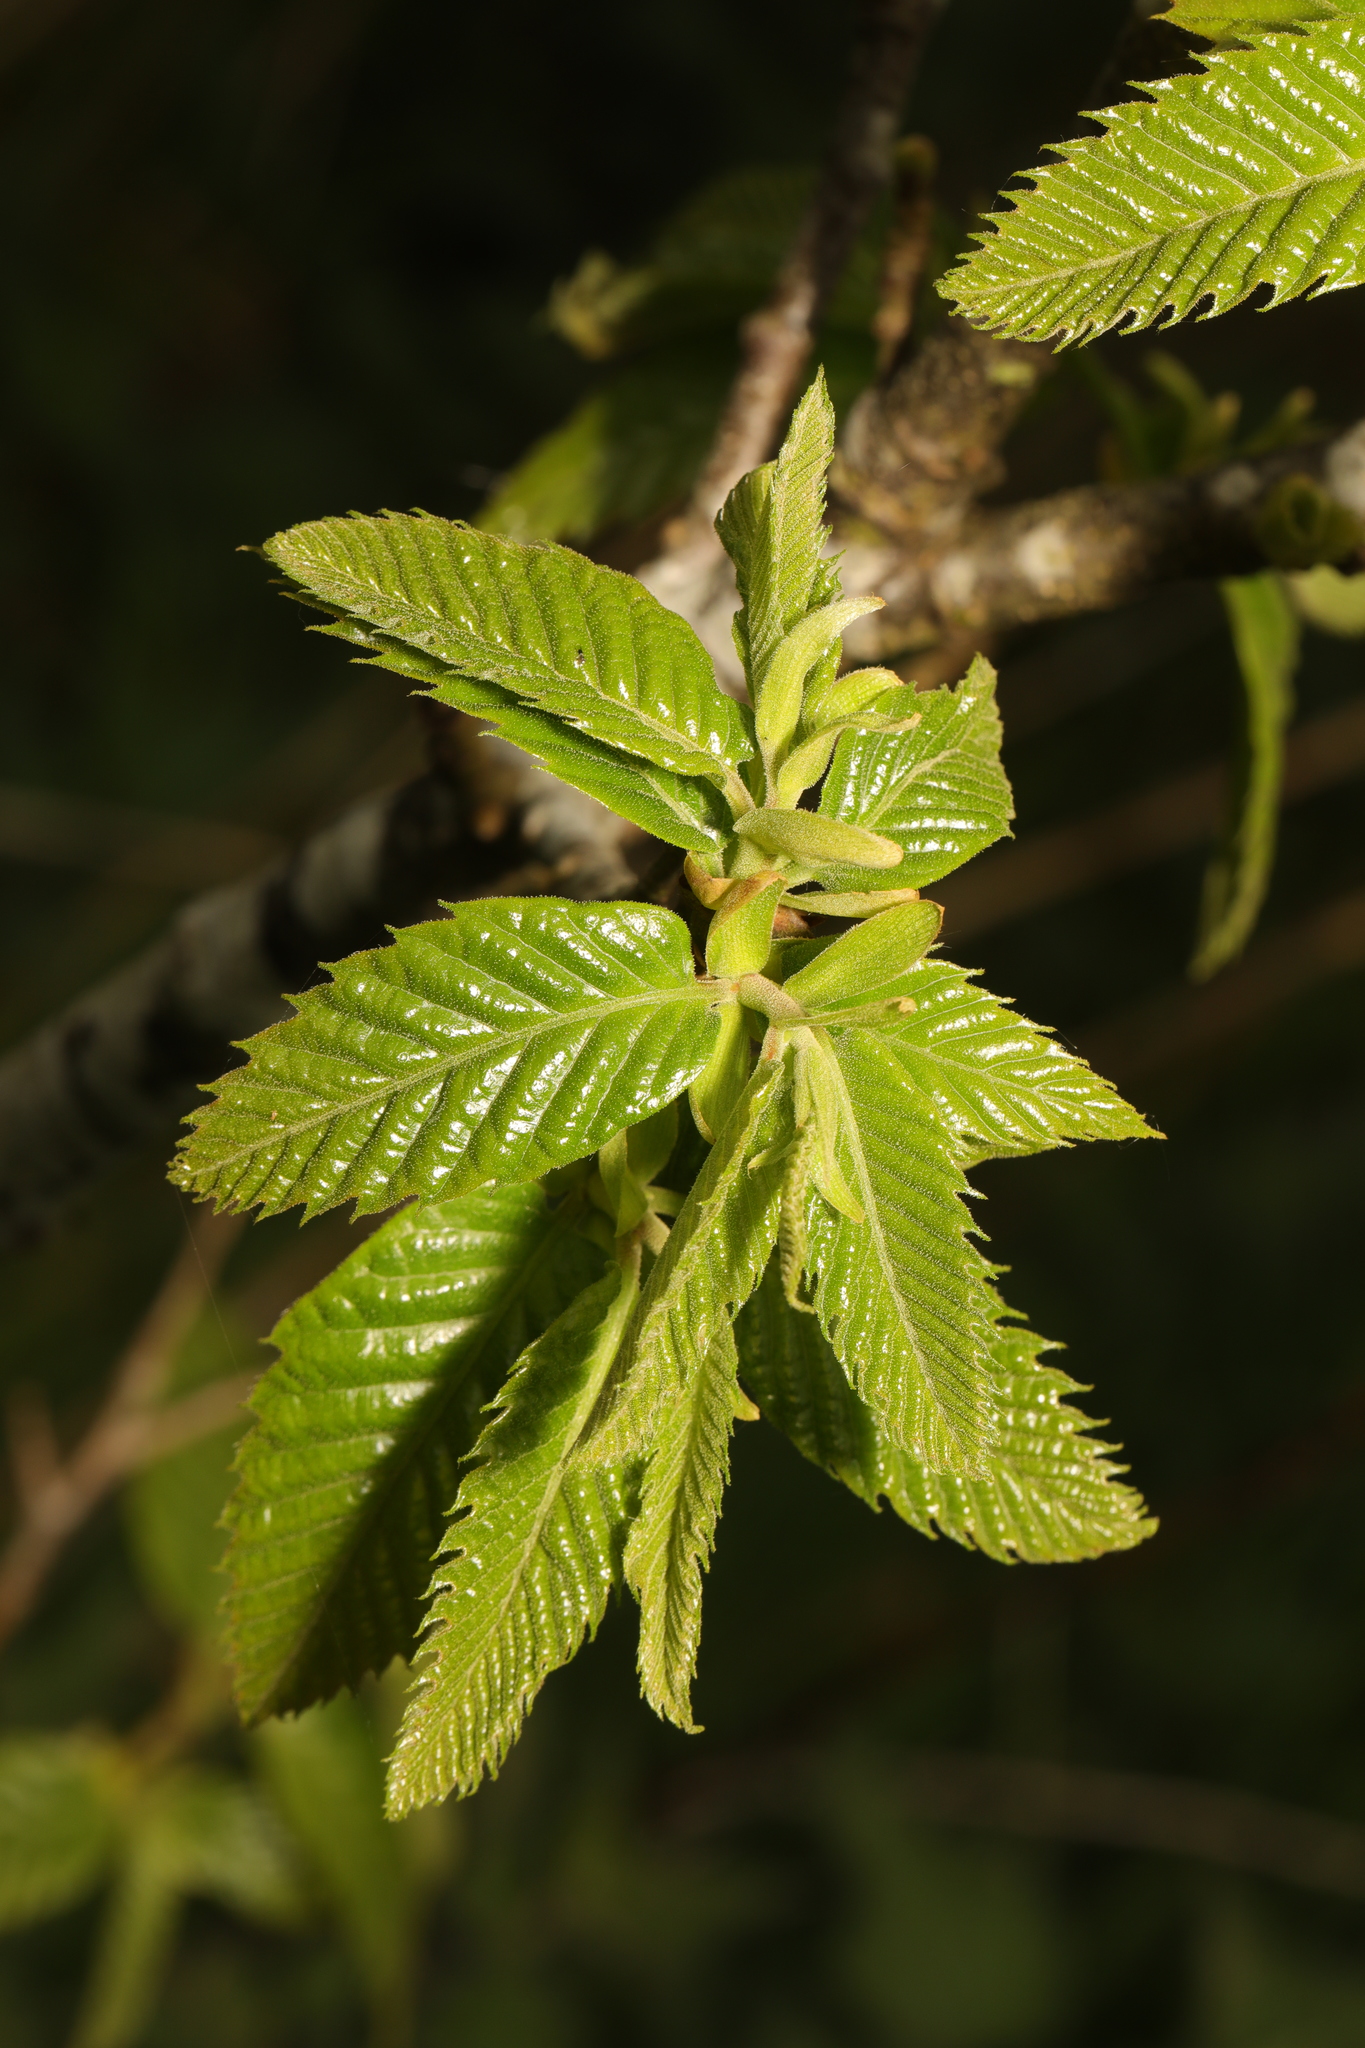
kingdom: Plantae
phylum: Tracheophyta
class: Magnoliopsida
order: Fagales
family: Betulaceae
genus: Carpinus
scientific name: Carpinus betulus
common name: Hornbeam
